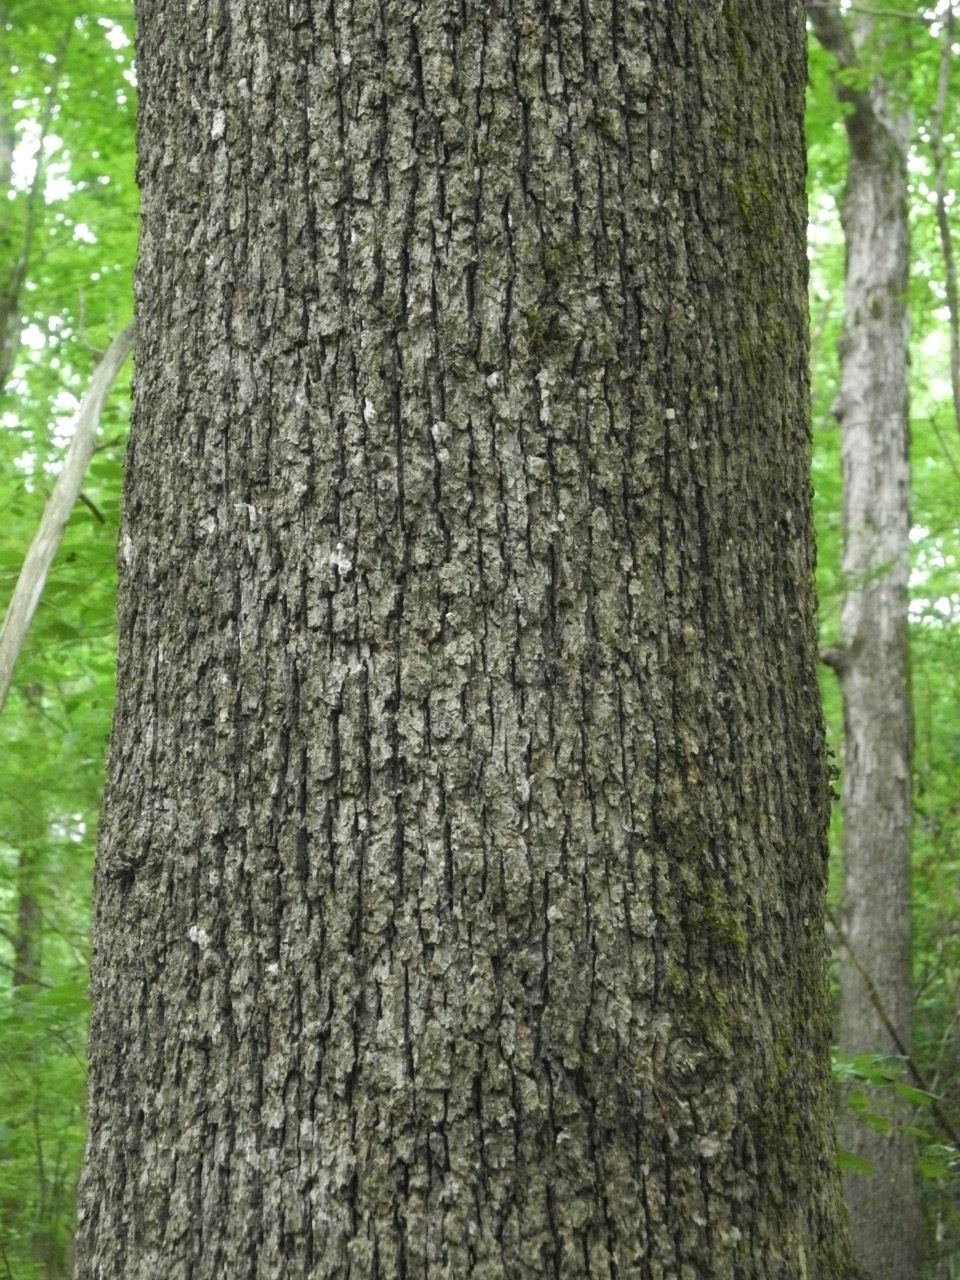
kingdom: Plantae
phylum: Tracheophyta
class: Magnoliopsida
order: Fagales
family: Fagaceae
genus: Quercus
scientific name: Quercus stellata
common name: Post oak
